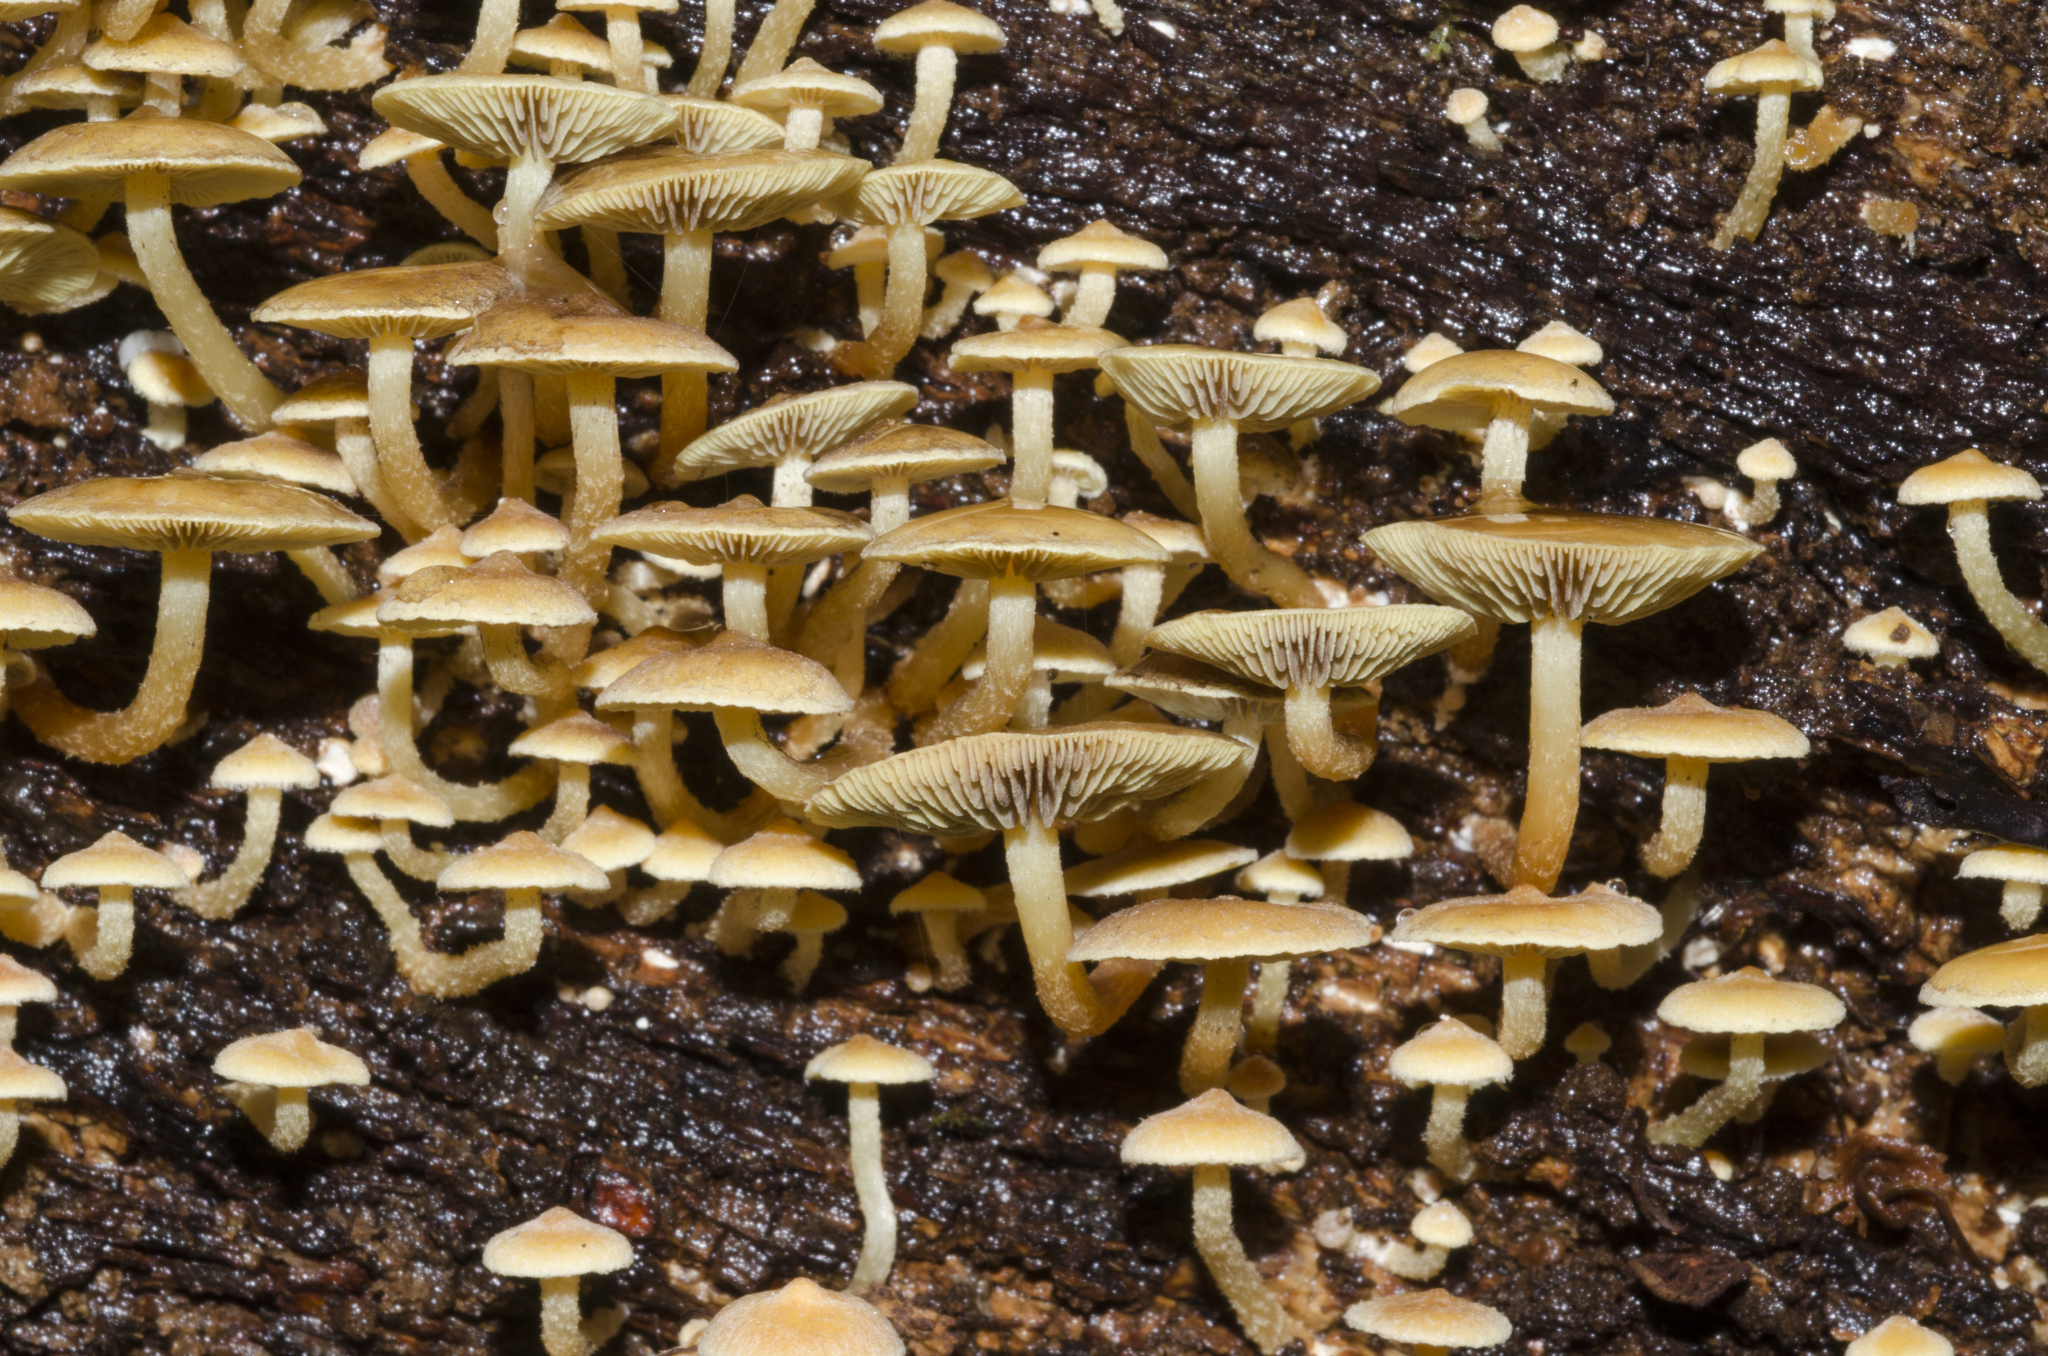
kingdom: Fungi
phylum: Basidiomycota
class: Agaricomycetes
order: Agaricales
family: Strophariaceae
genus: Hypholoma
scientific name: Hypholoma acutum
